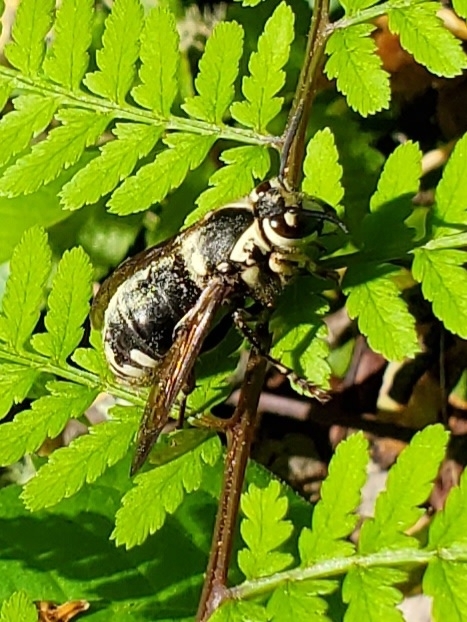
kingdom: Animalia
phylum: Arthropoda
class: Insecta
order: Hymenoptera
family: Vespidae
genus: Dolichovespula
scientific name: Dolichovespula maculata
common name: Bald-faced hornet
